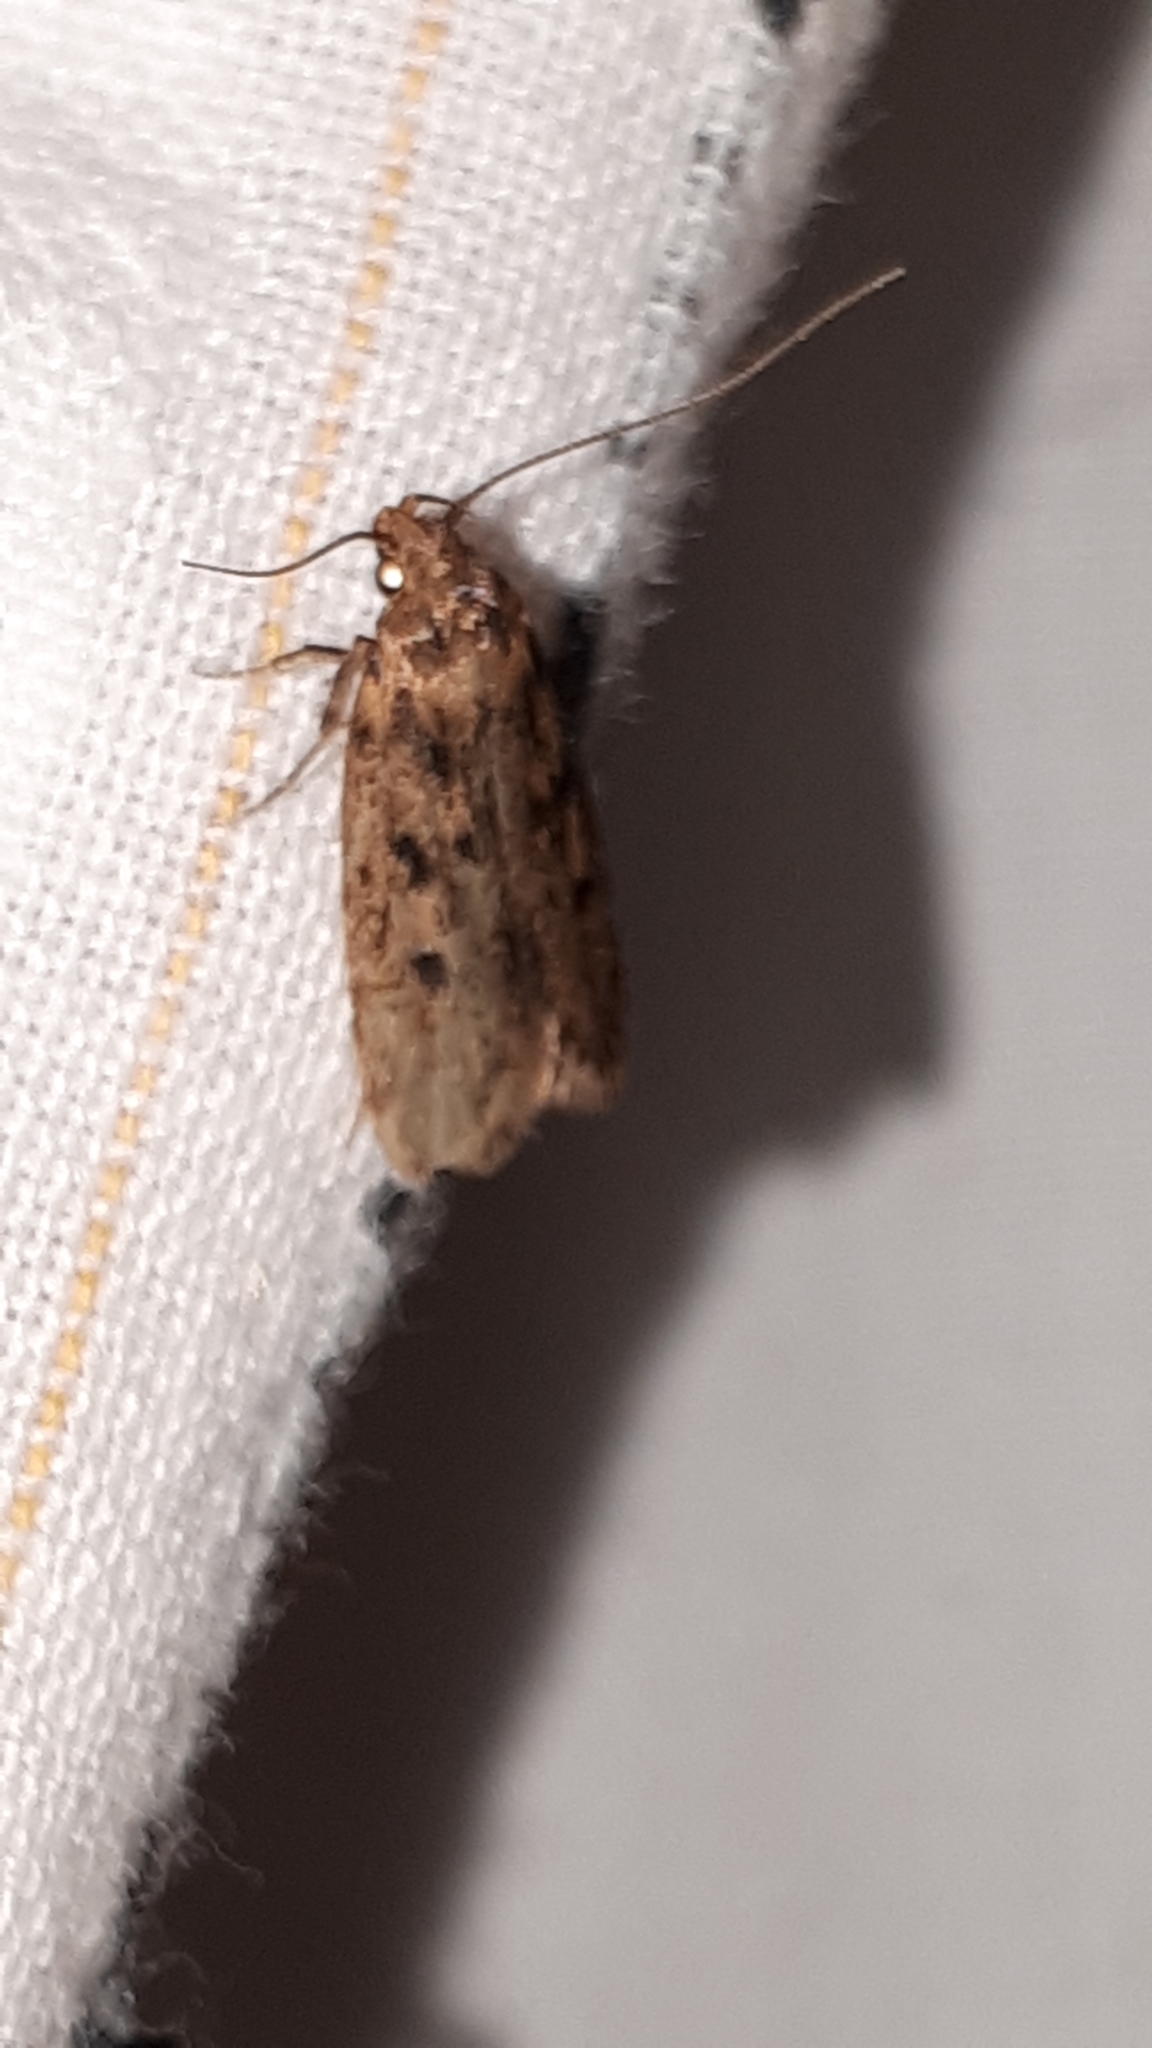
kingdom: Animalia
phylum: Arthropoda
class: Insecta
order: Lepidoptera
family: Oecophoridae
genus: Hofmannophila
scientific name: Hofmannophila pseudospretella
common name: Brown house moth
